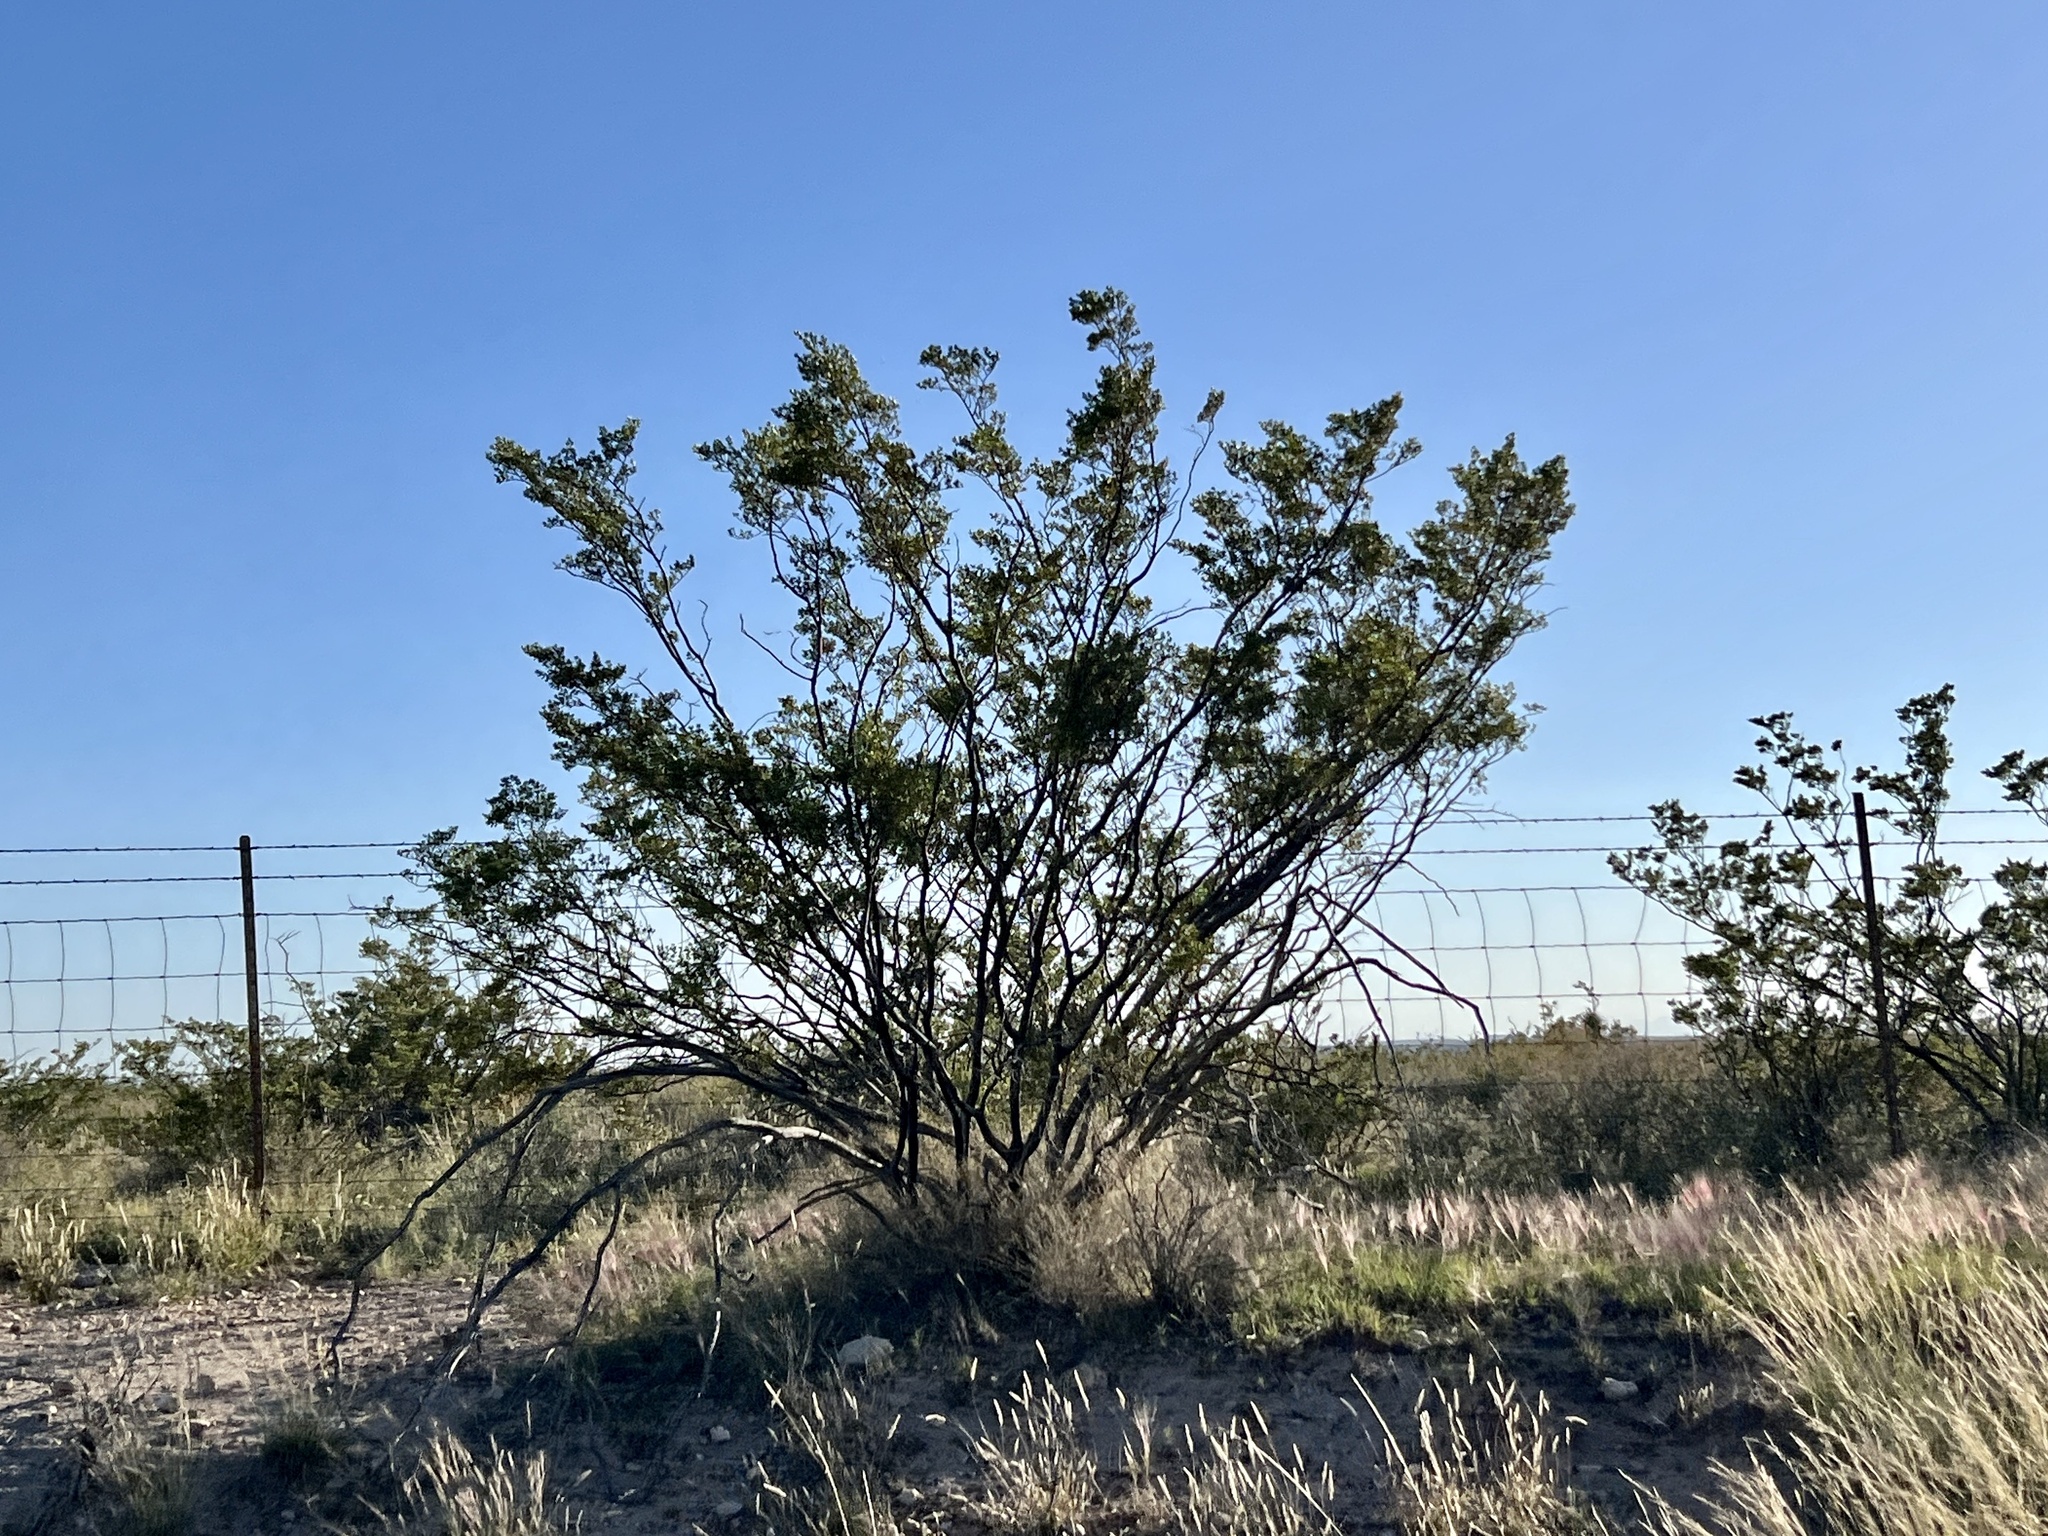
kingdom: Plantae
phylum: Tracheophyta
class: Magnoliopsida
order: Zygophyllales
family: Zygophyllaceae
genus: Larrea
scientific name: Larrea tridentata
